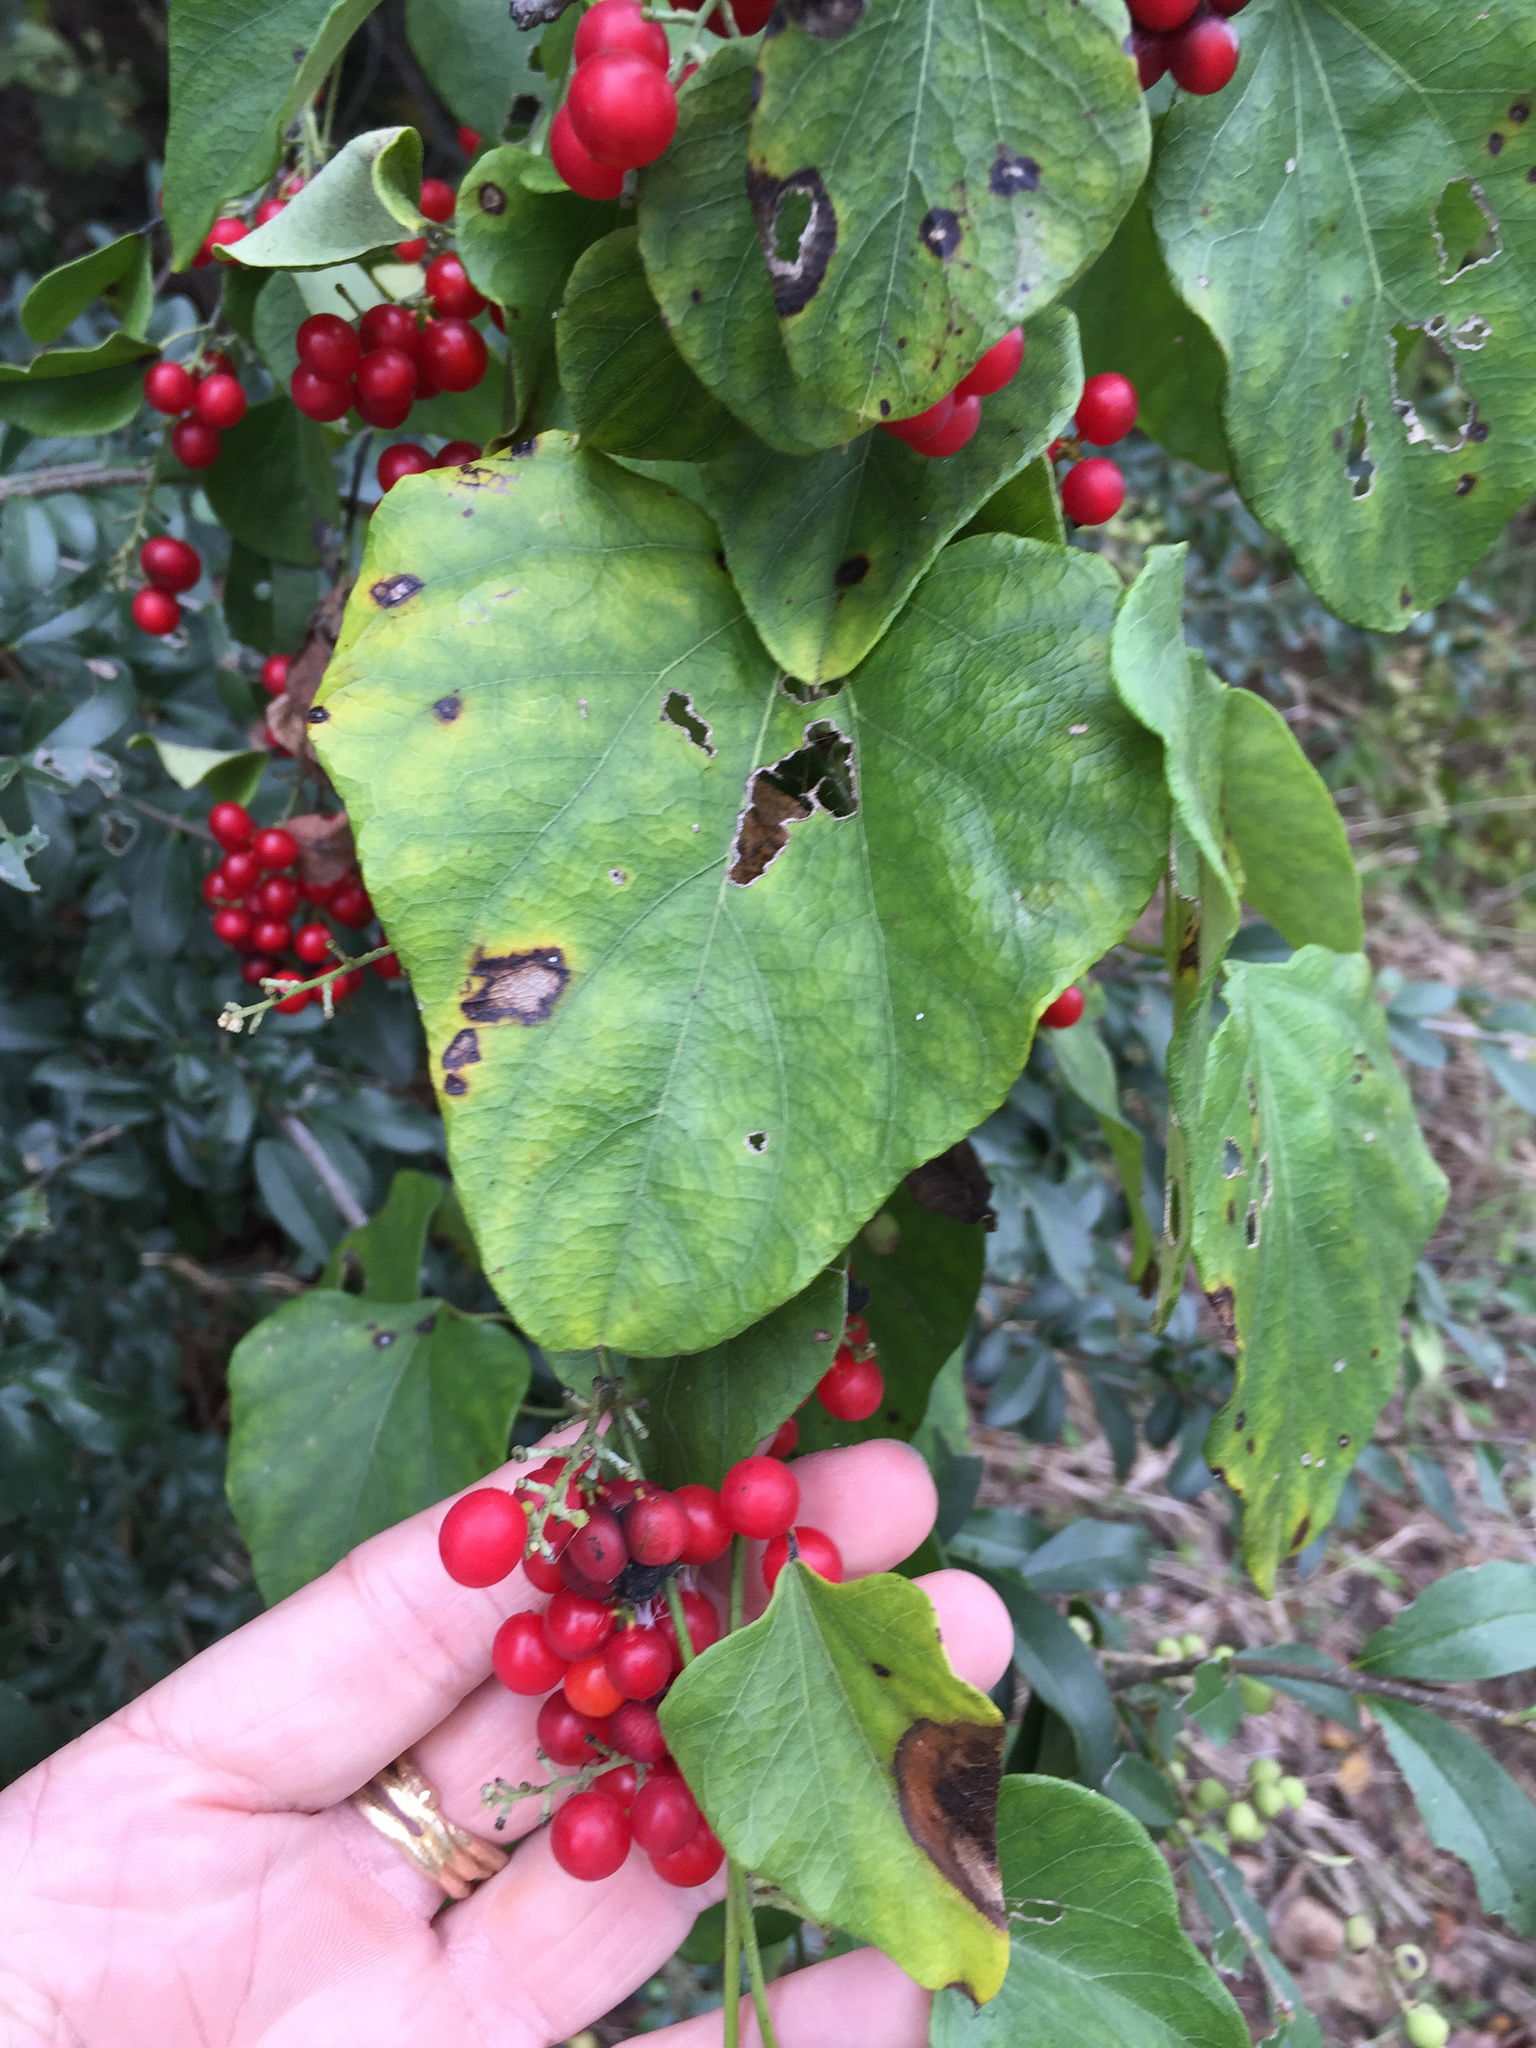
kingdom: Plantae
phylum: Tracheophyta
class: Magnoliopsida
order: Ranunculales
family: Menispermaceae
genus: Cocculus
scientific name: Cocculus carolinus
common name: Carolina moonseed
